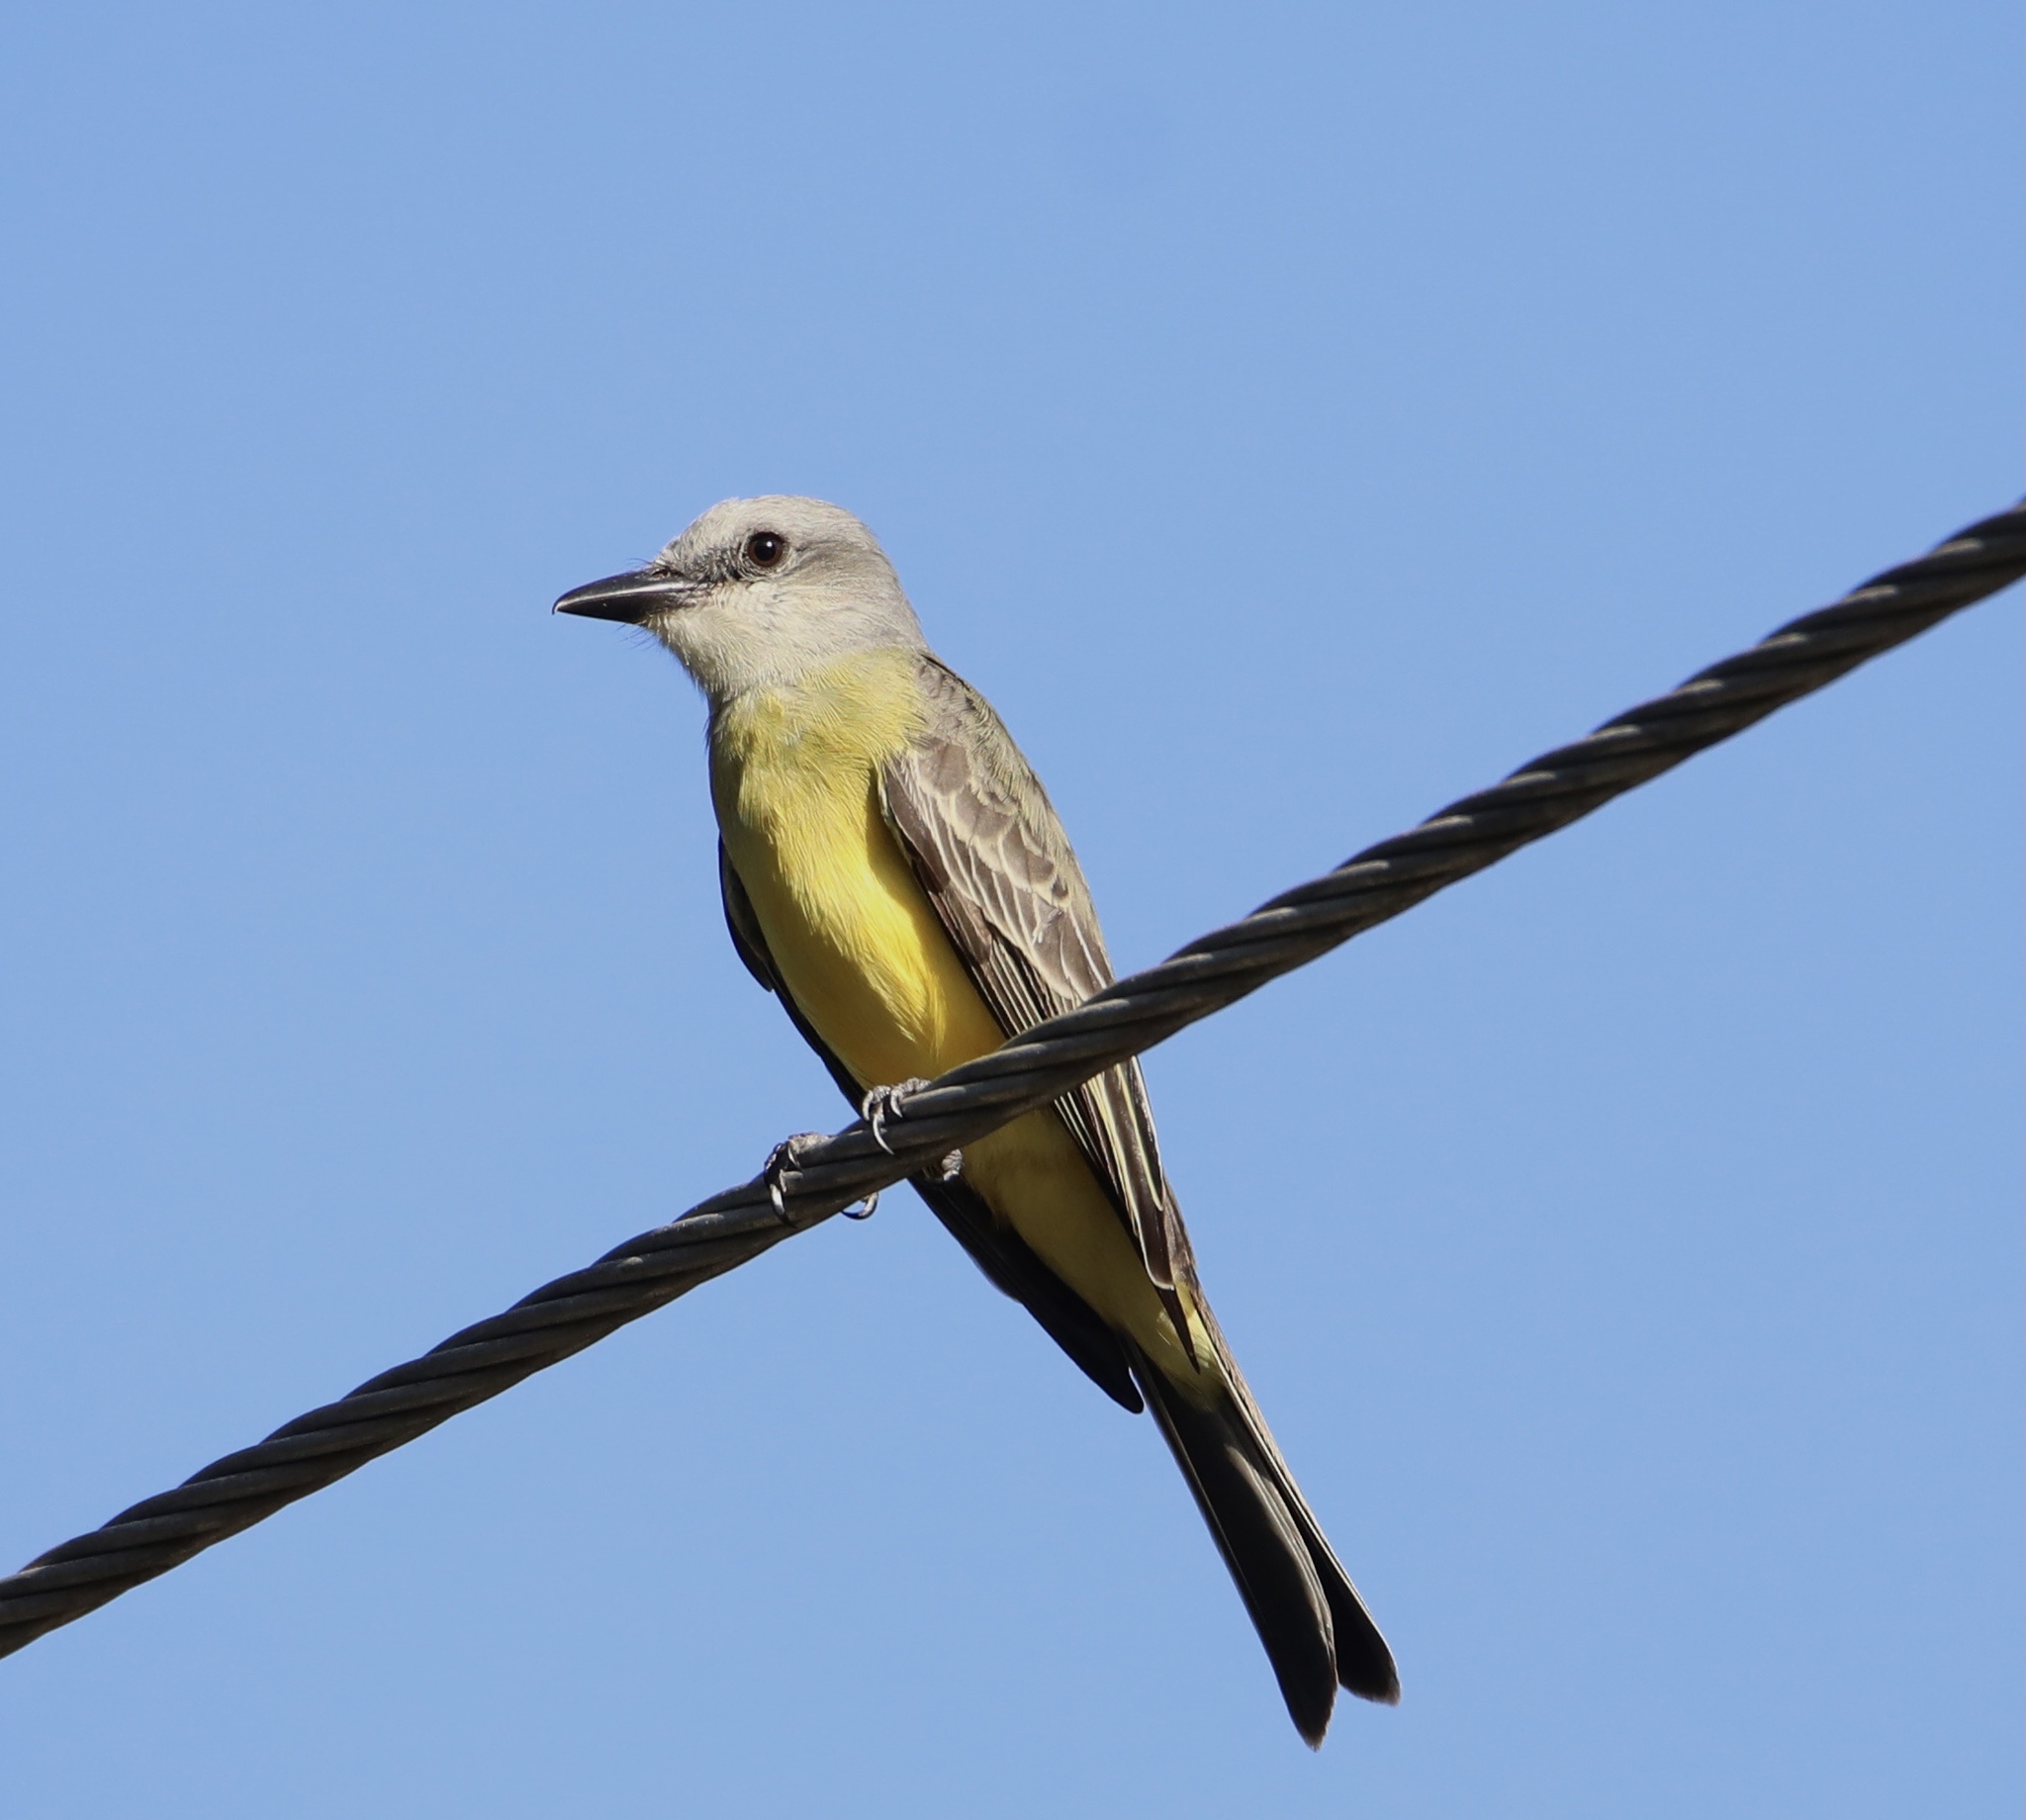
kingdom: Animalia
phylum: Chordata
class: Aves
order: Passeriformes
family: Tyrannidae
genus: Tyrannus
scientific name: Tyrannus melancholicus
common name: Tropical kingbird
